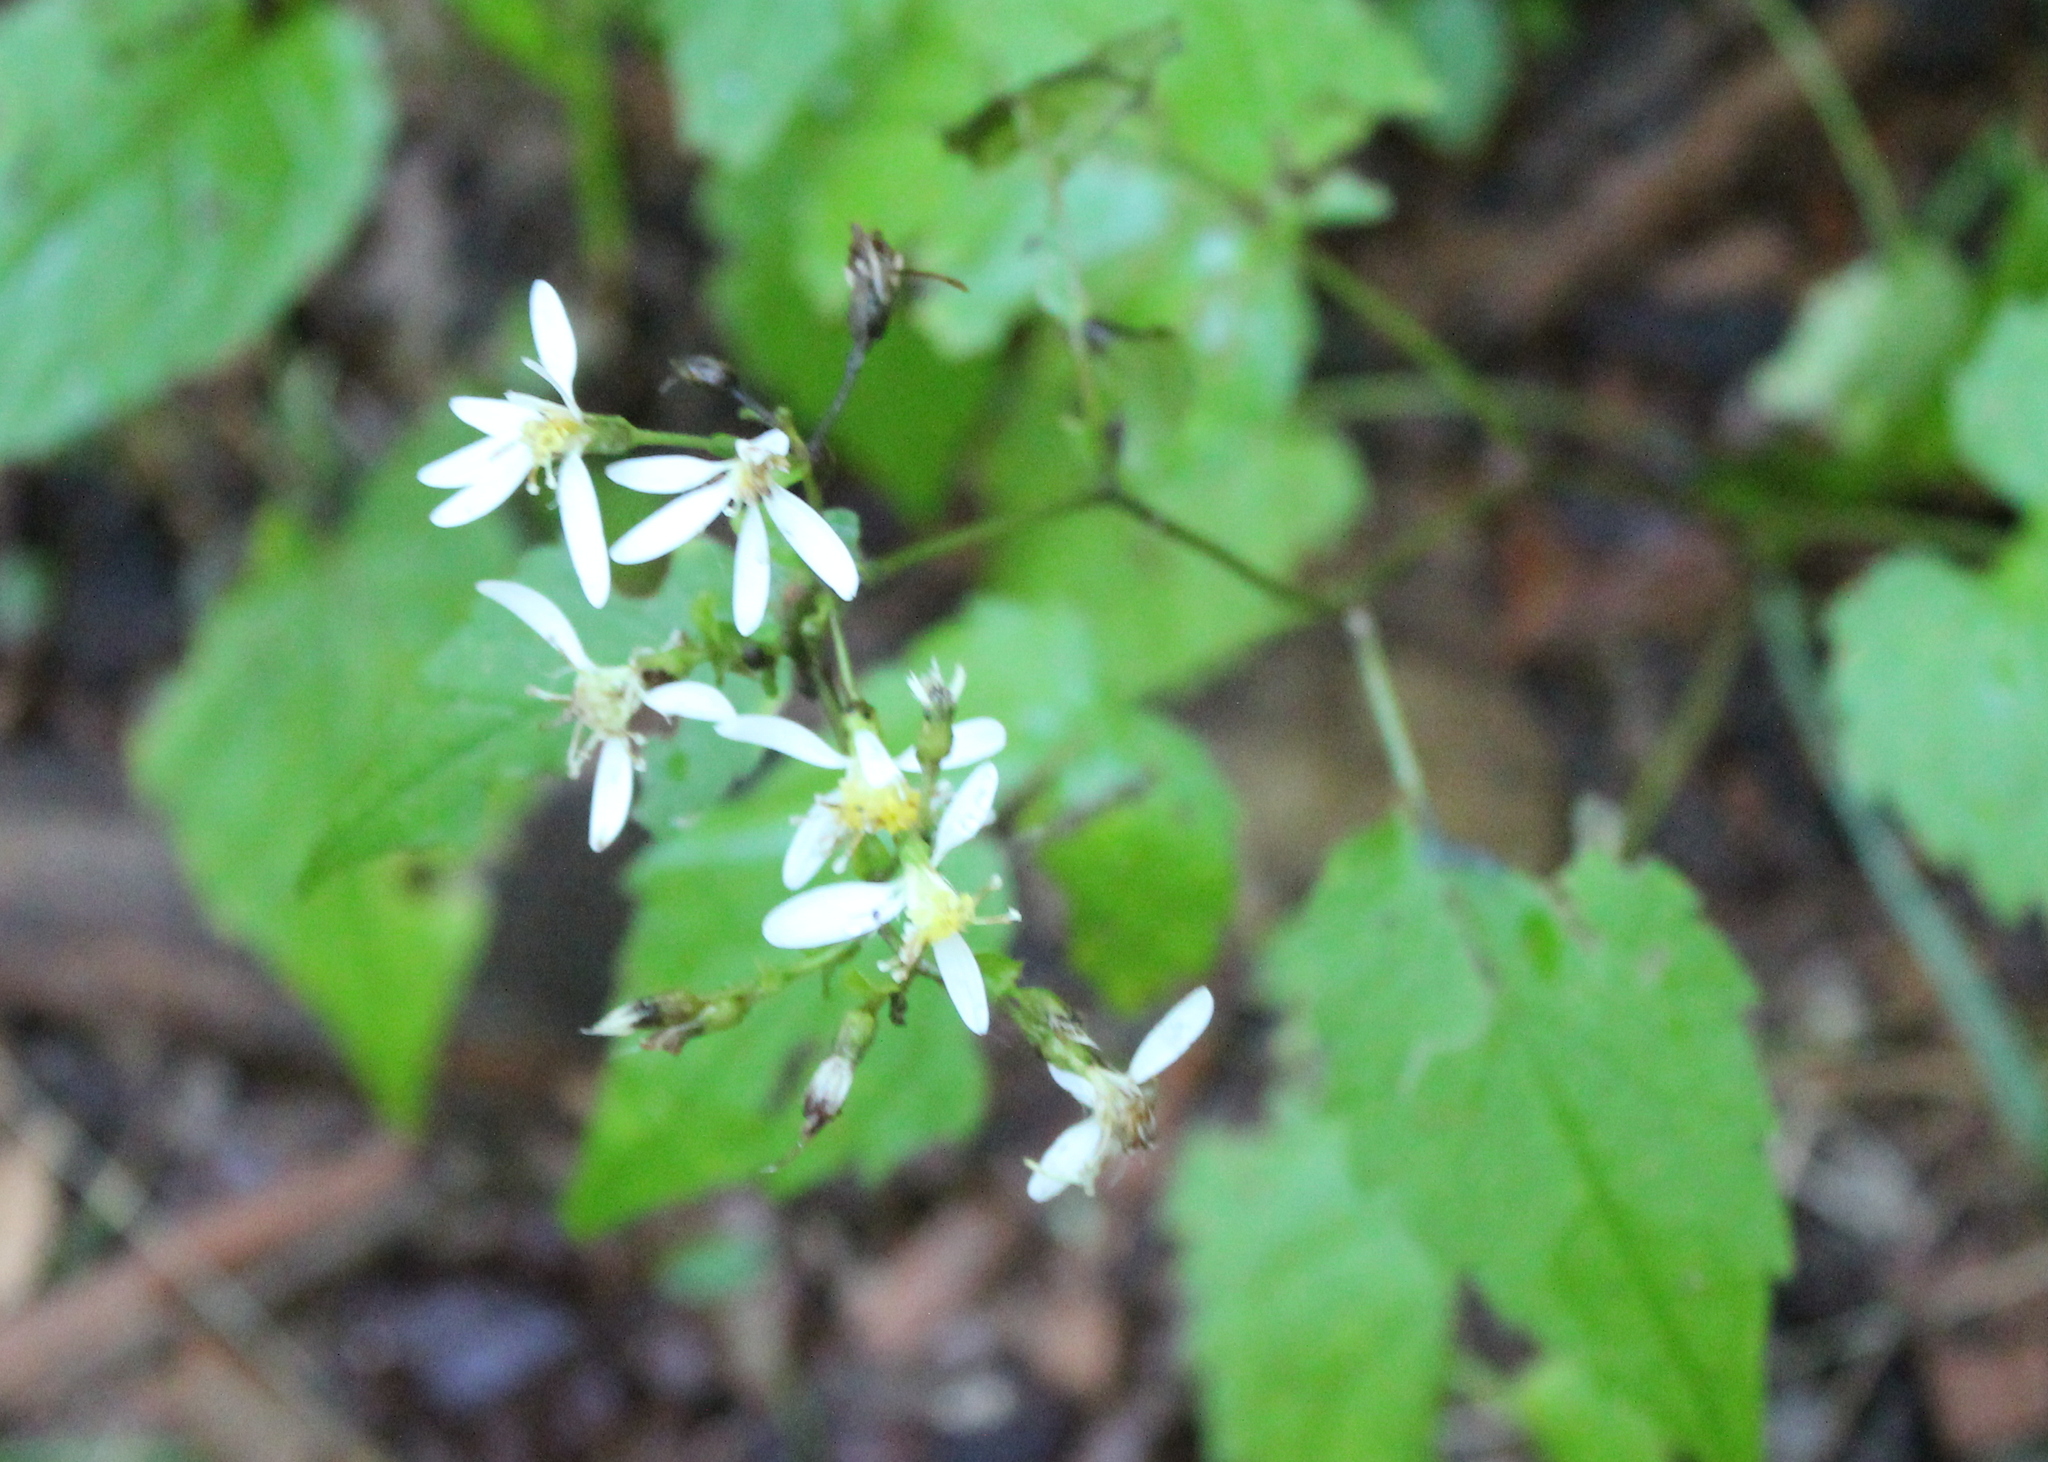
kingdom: Plantae
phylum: Tracheophyta
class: Magnoliopsida
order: Asterales
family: Asteraceae
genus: Eurybia
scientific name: Eurybia divaricata
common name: White wood aster
